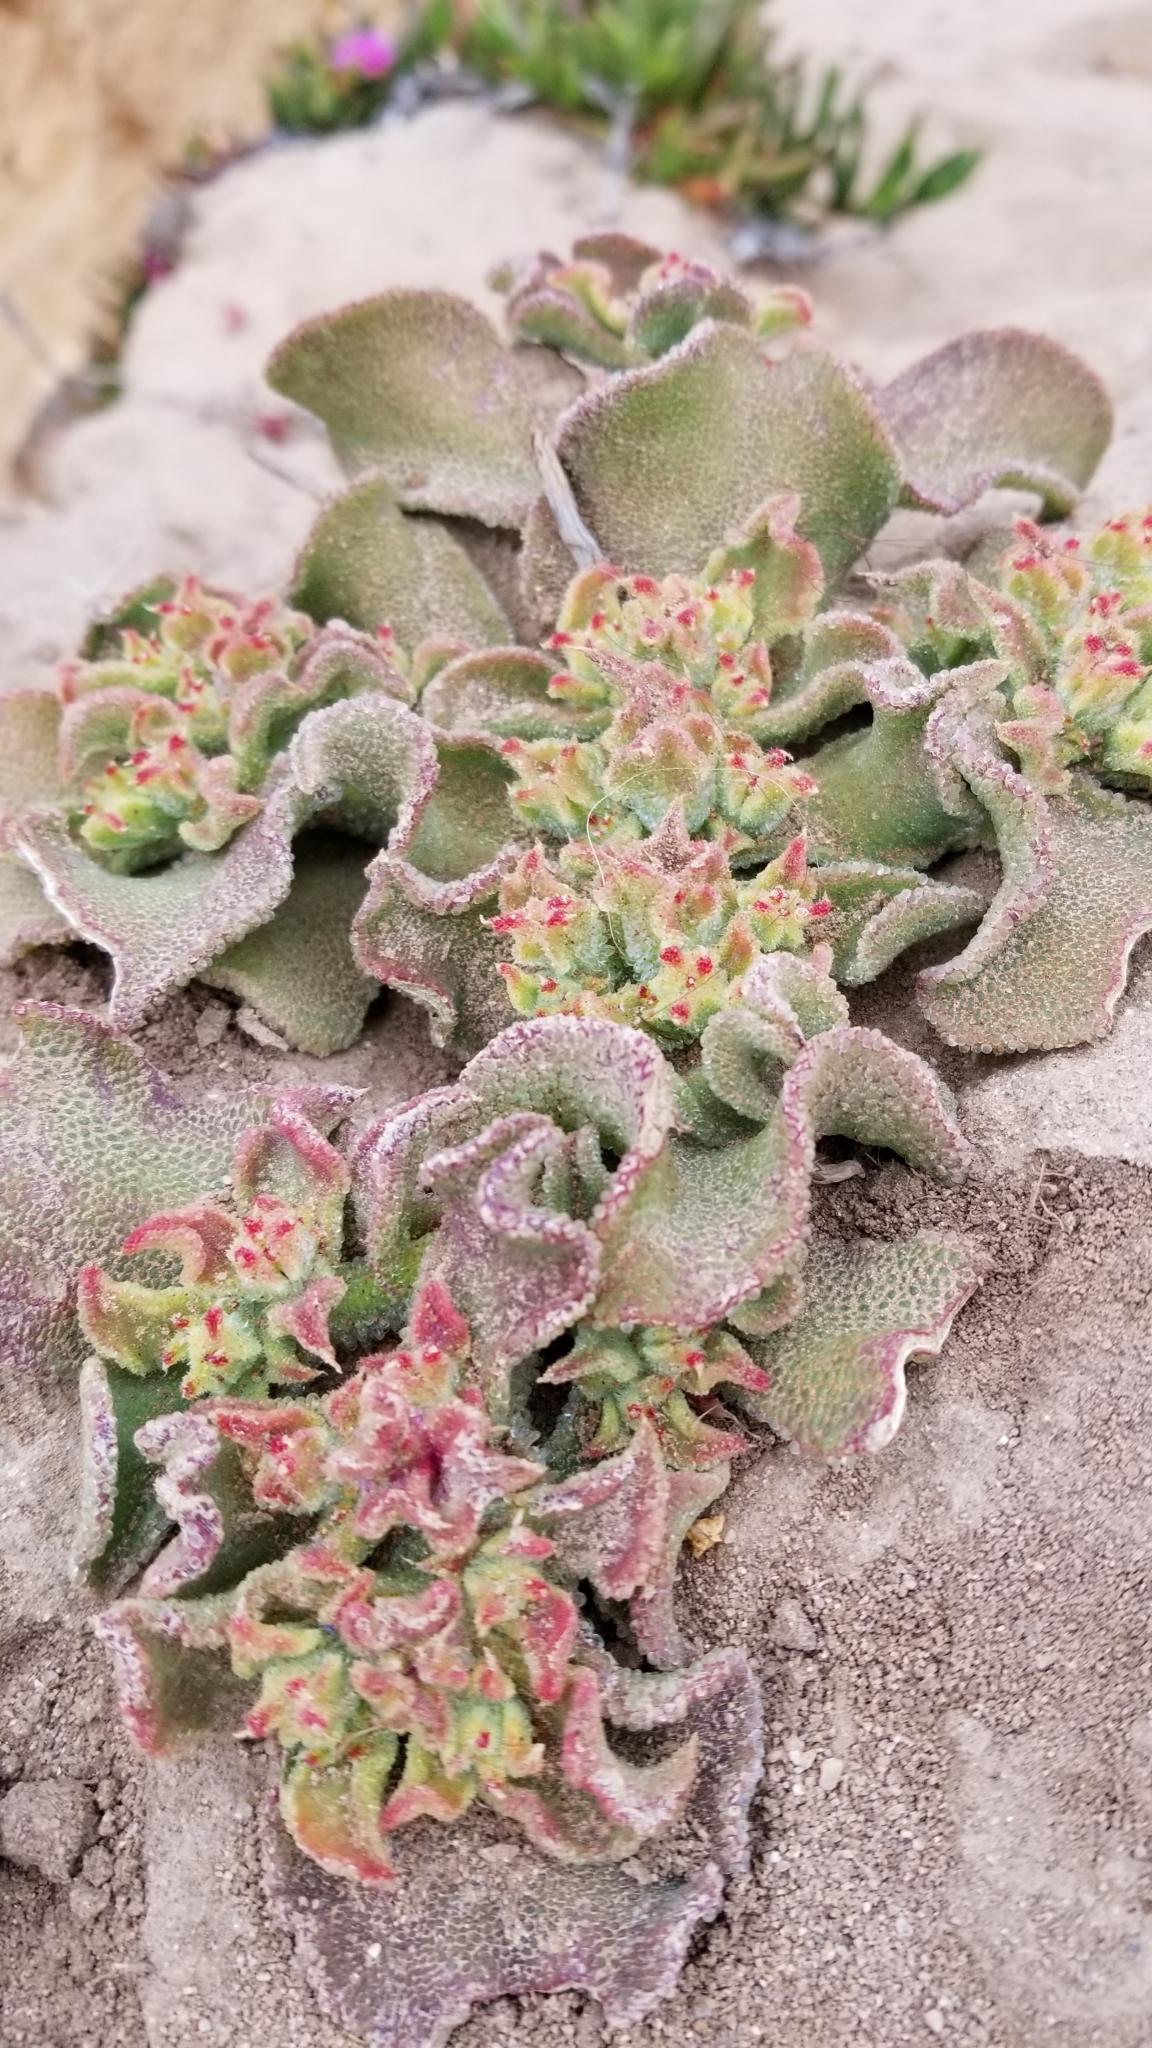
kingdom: Plantae
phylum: Tracheophyta
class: Magnoliopsida
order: Caryophyllales
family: Aizoaceae
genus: Mesembryanthemum
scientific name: Mesembryanthemum crystallinum
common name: Common iceplant
